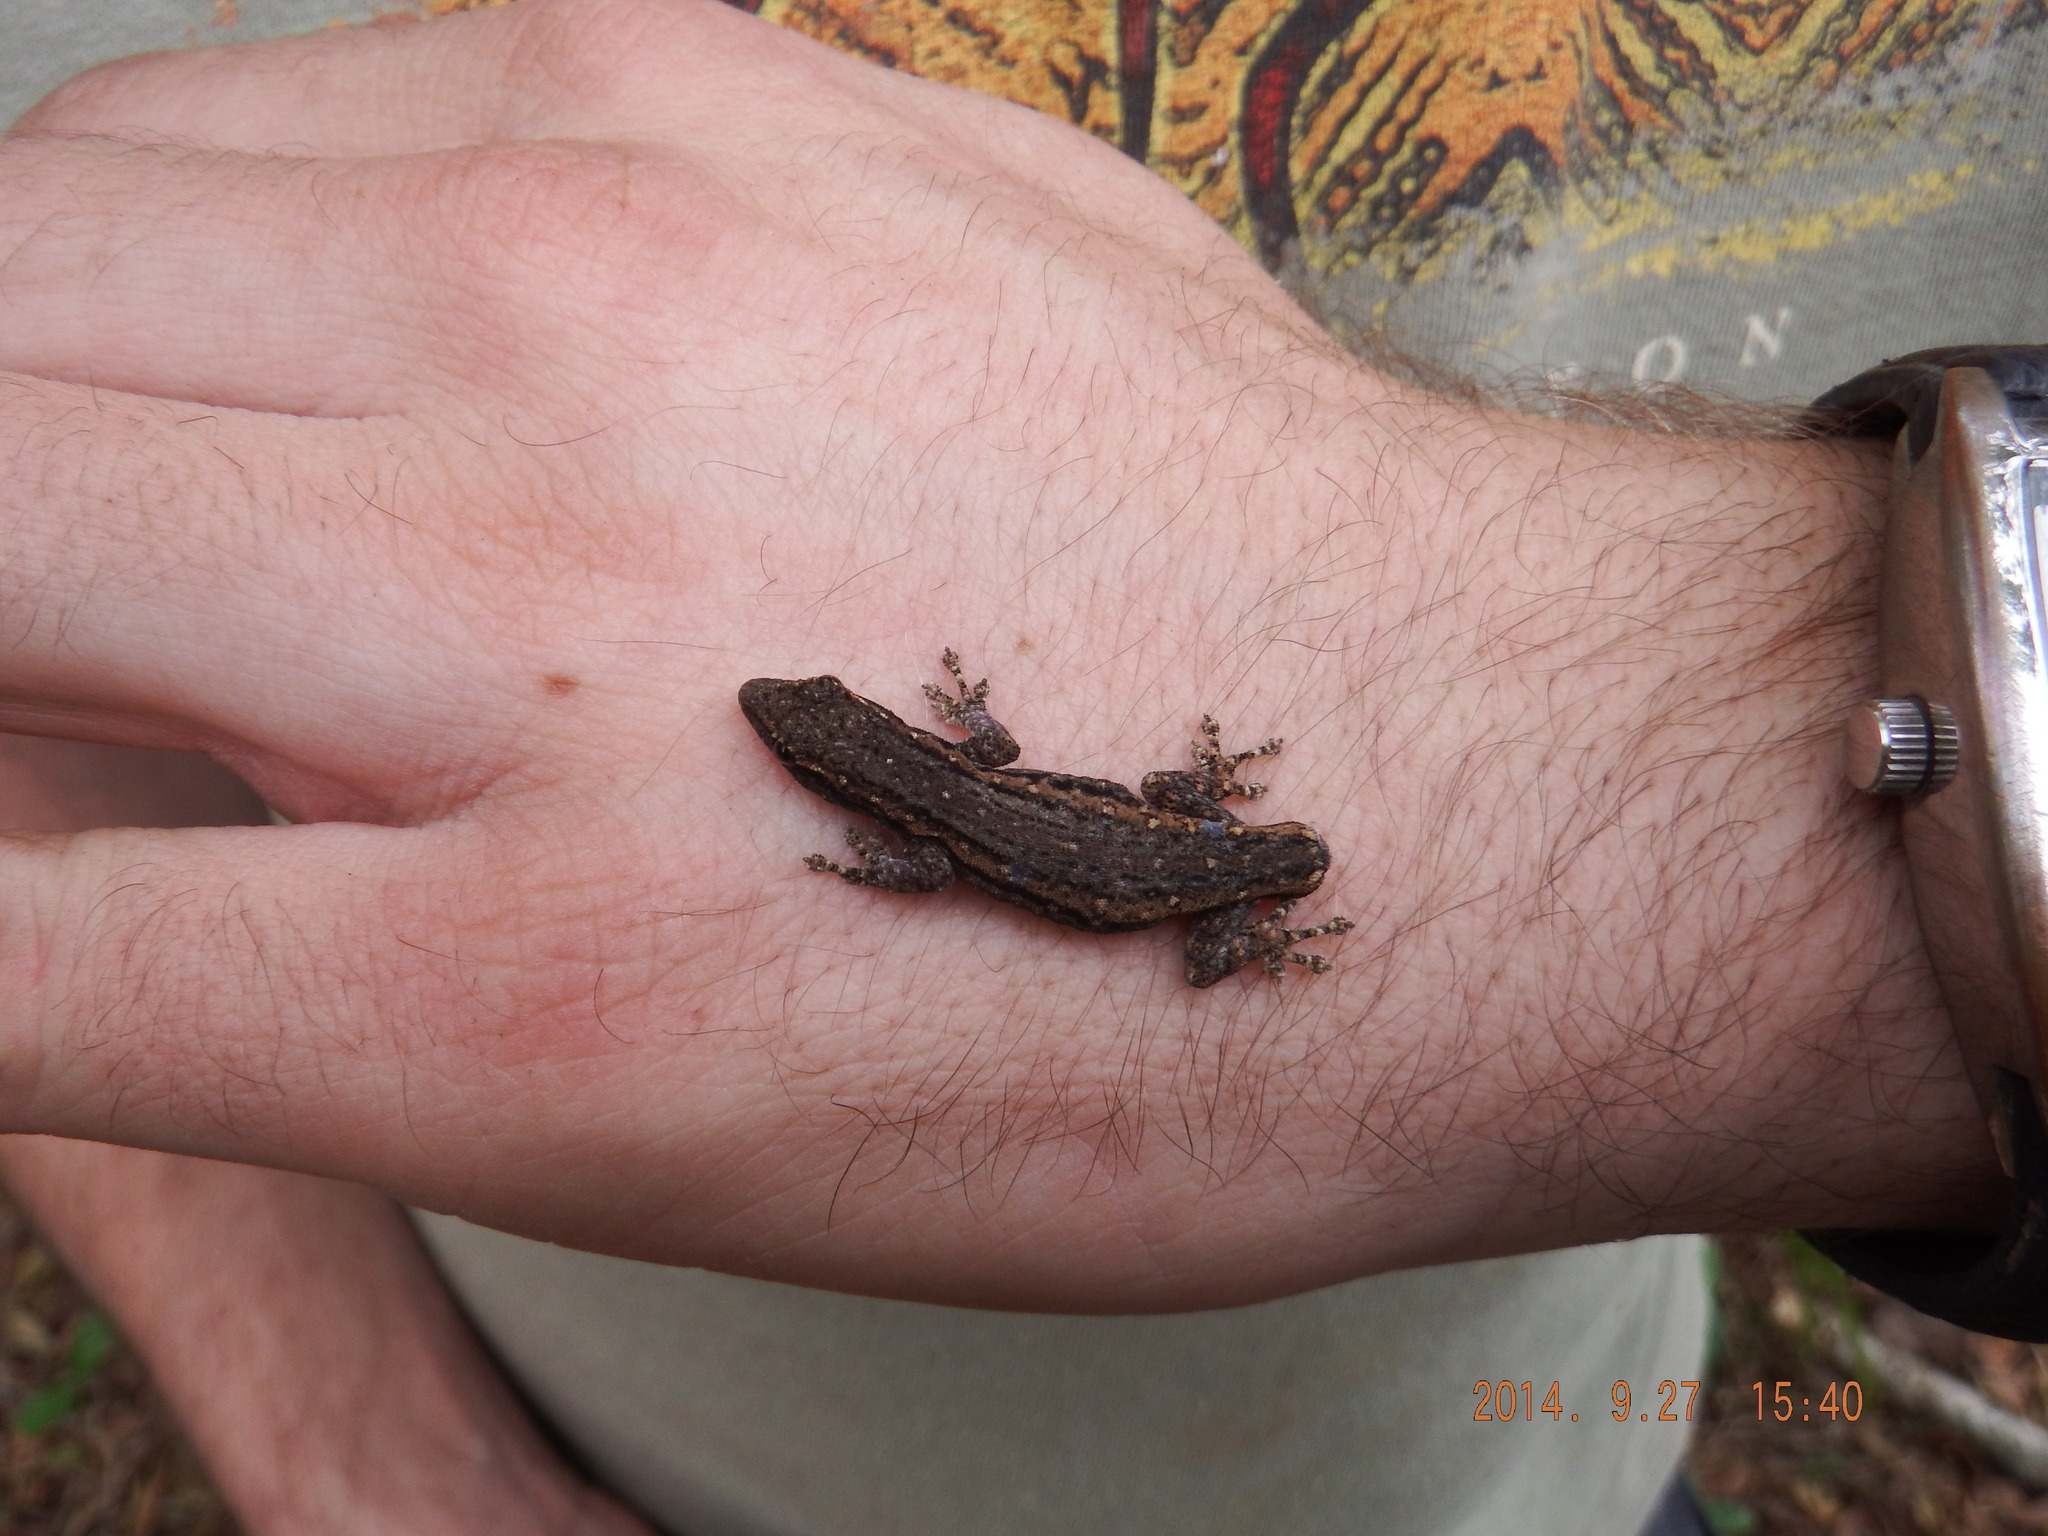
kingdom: Animalia
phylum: Chordata
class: Squamata
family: Gekkonidae
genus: Lygodactylus
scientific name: Lygodactylus capensis
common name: Cape dwarf gecko
